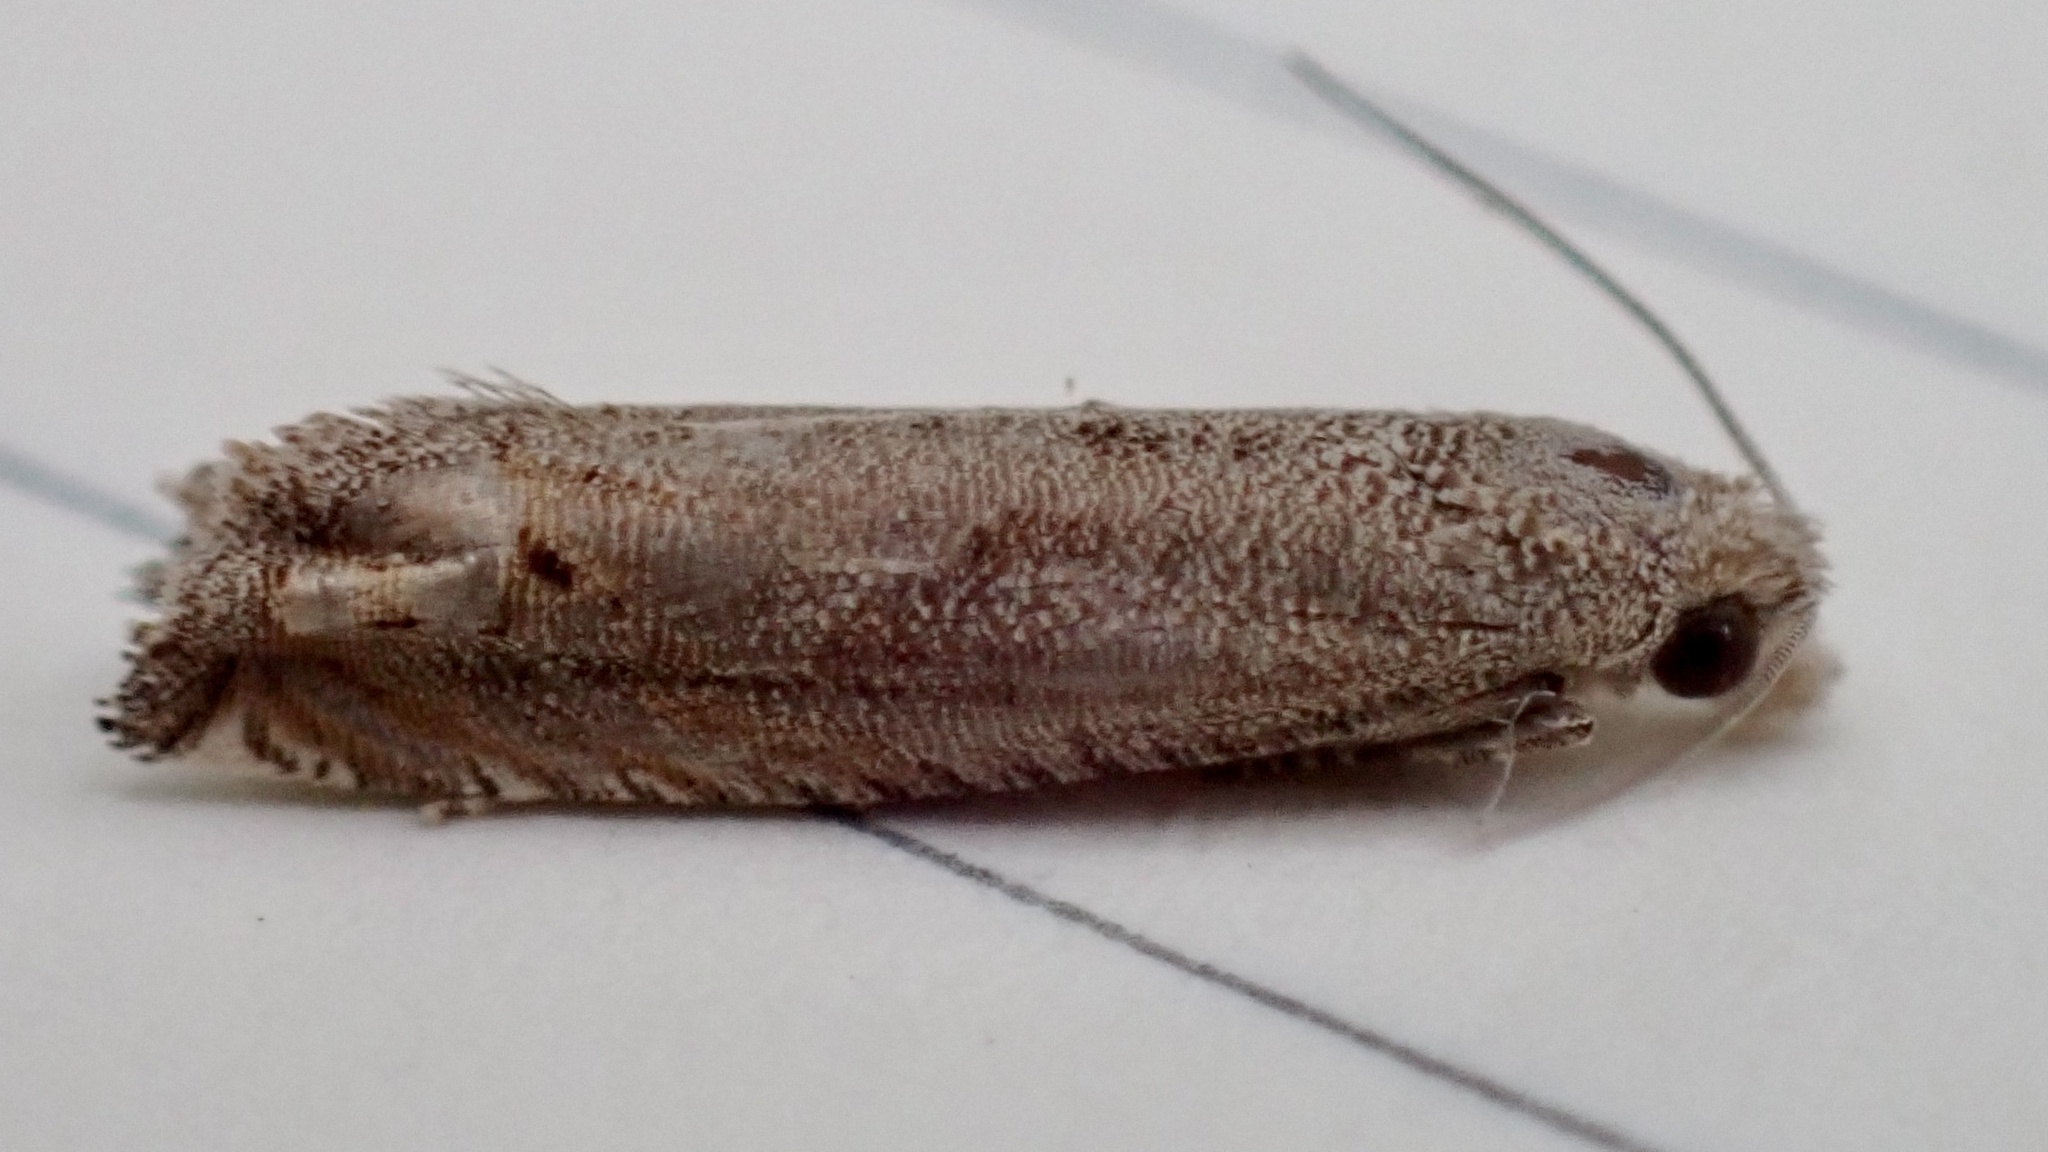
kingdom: Animalia
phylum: Arthropoda
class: Insecta
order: Lepidoptera
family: Tortricidae
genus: Epiblema
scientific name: Epiblema strenuana
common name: Ragweed borer moth
